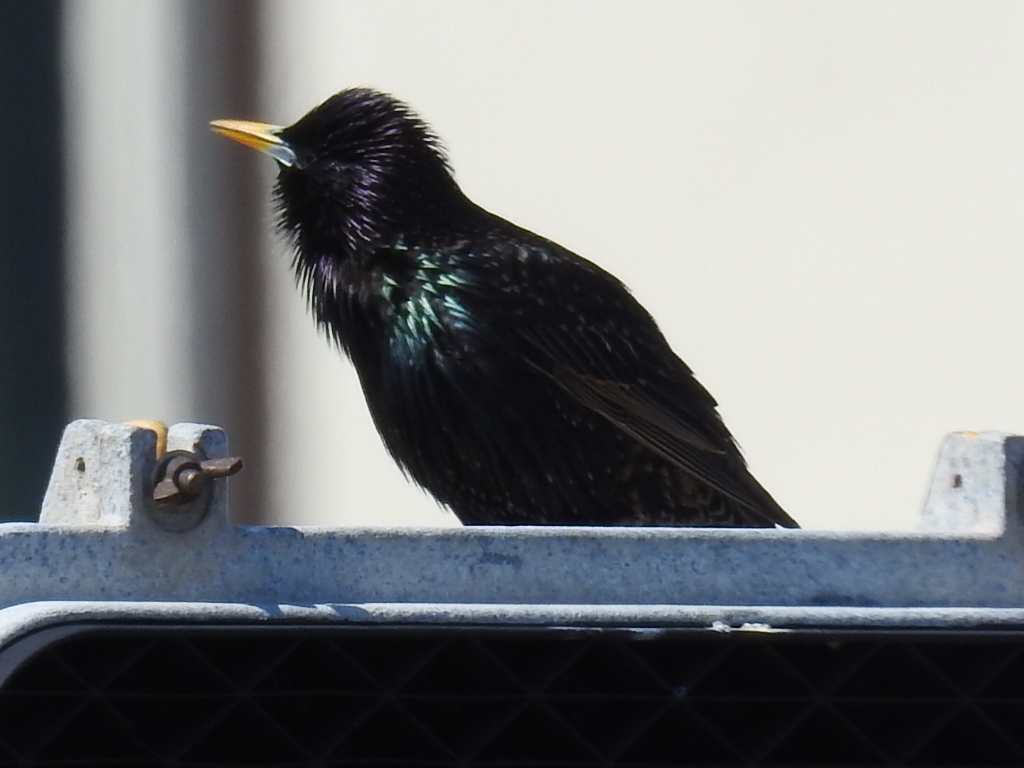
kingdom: Animalia
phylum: Chordata
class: Aves
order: Passeriformes
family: Sturnidae
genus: Sturnus
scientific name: Sturnus vulgaris
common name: Common starling
